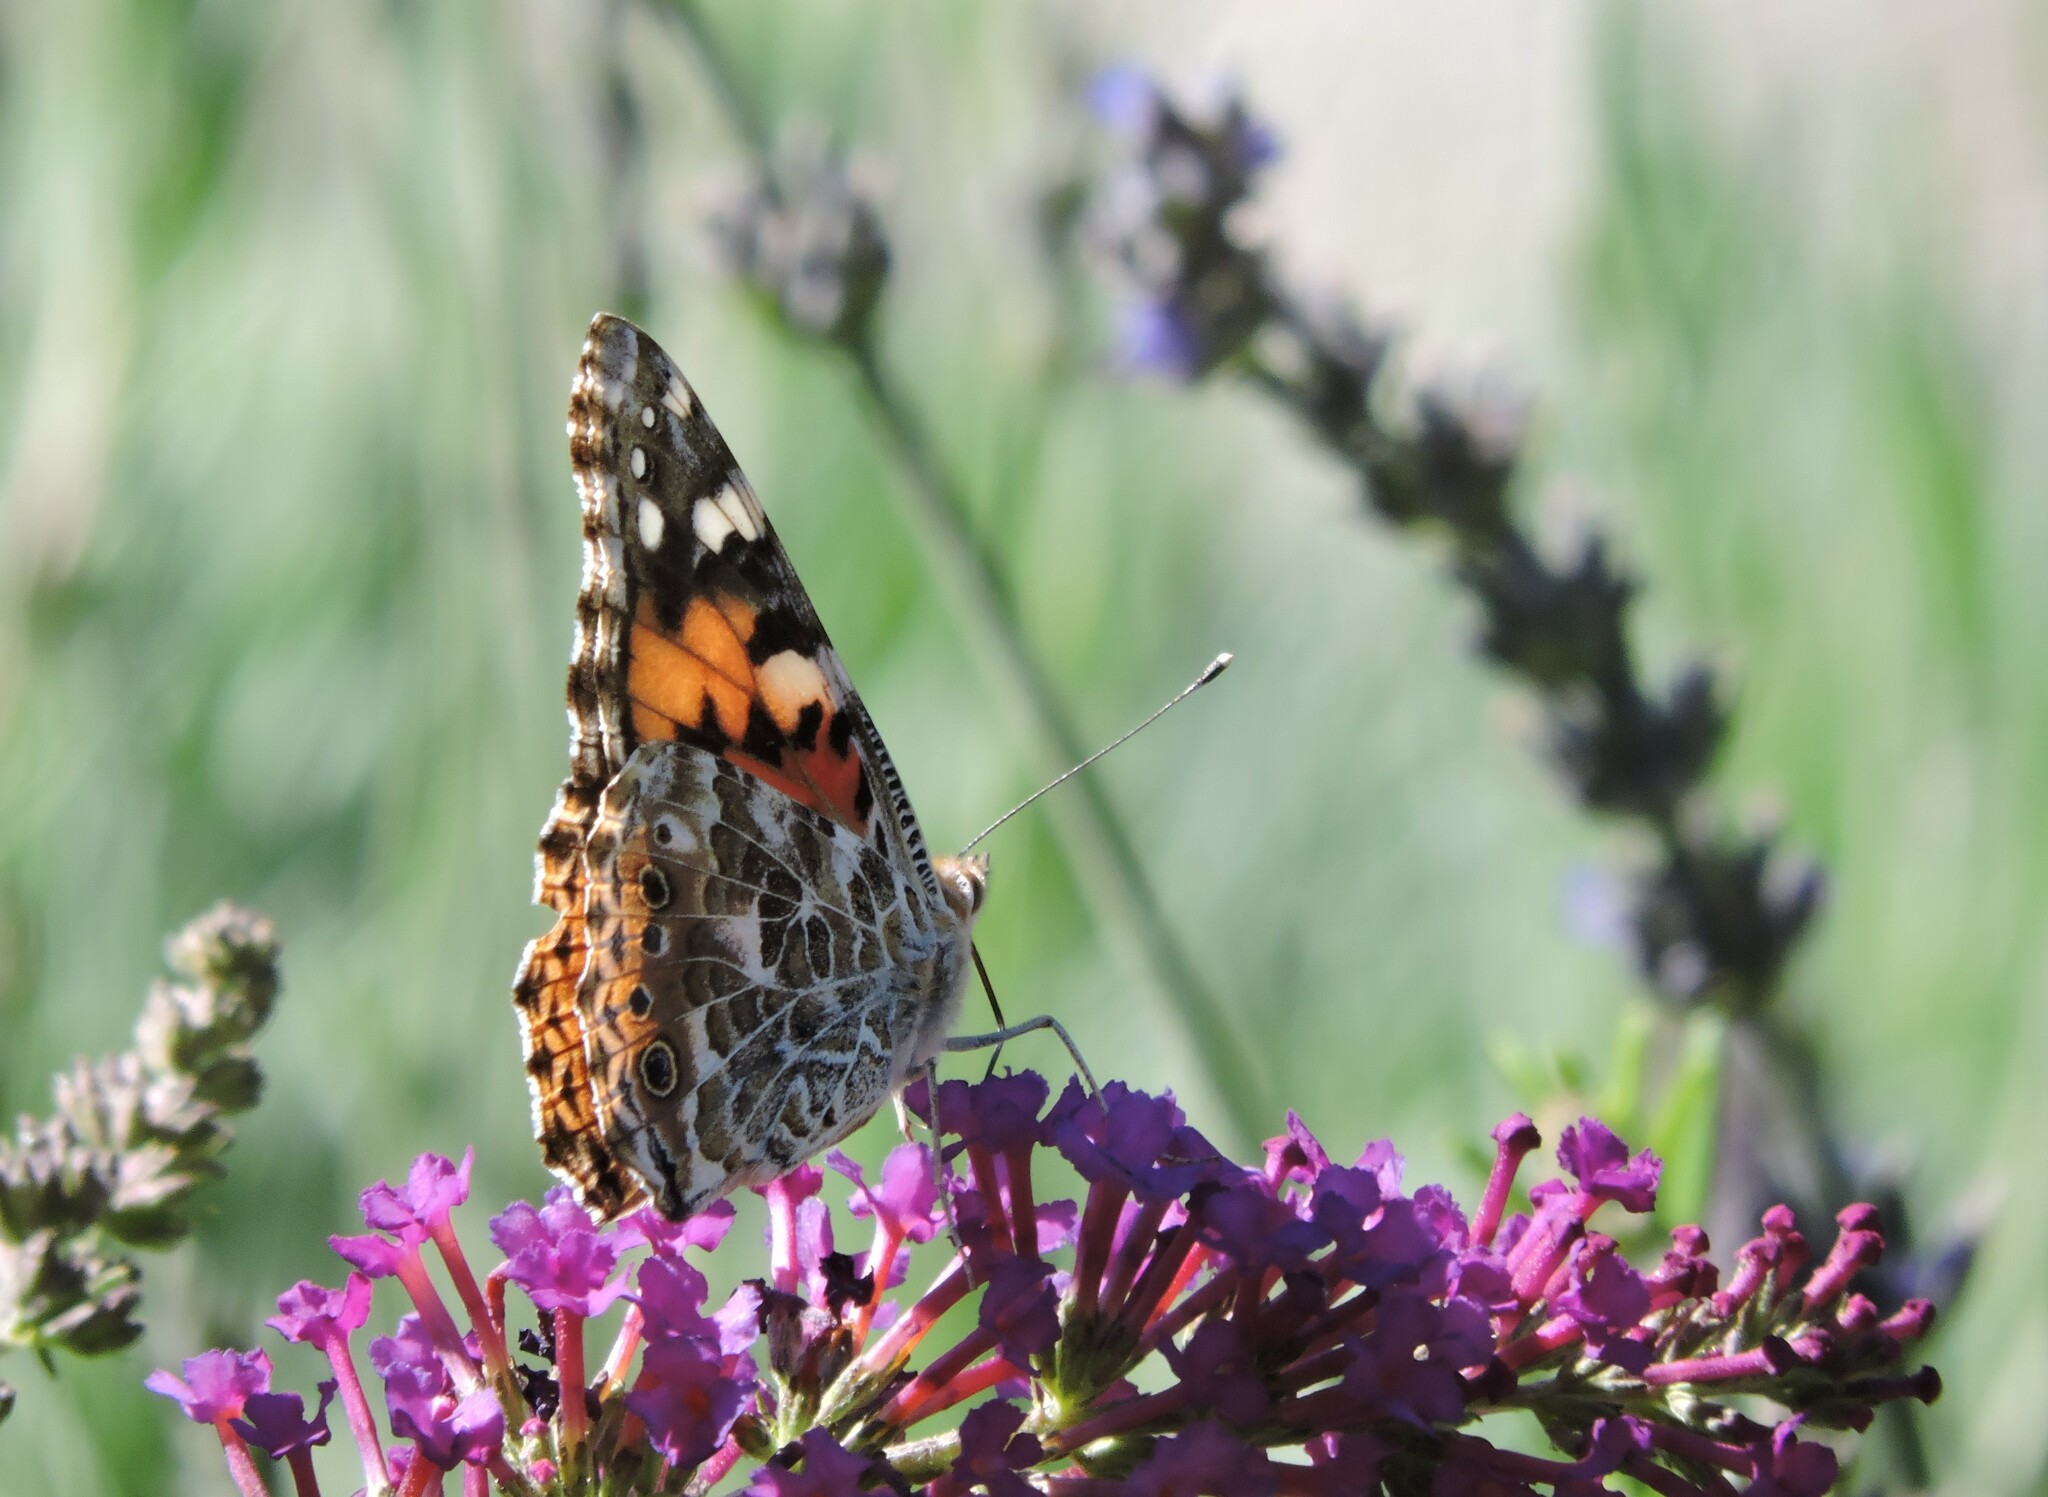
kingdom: Animalia
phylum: Arthropoda
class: Insecta
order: Lepidoptera
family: Nymphalidae
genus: Vanessa
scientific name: Vanessa cardui
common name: Painted lady
